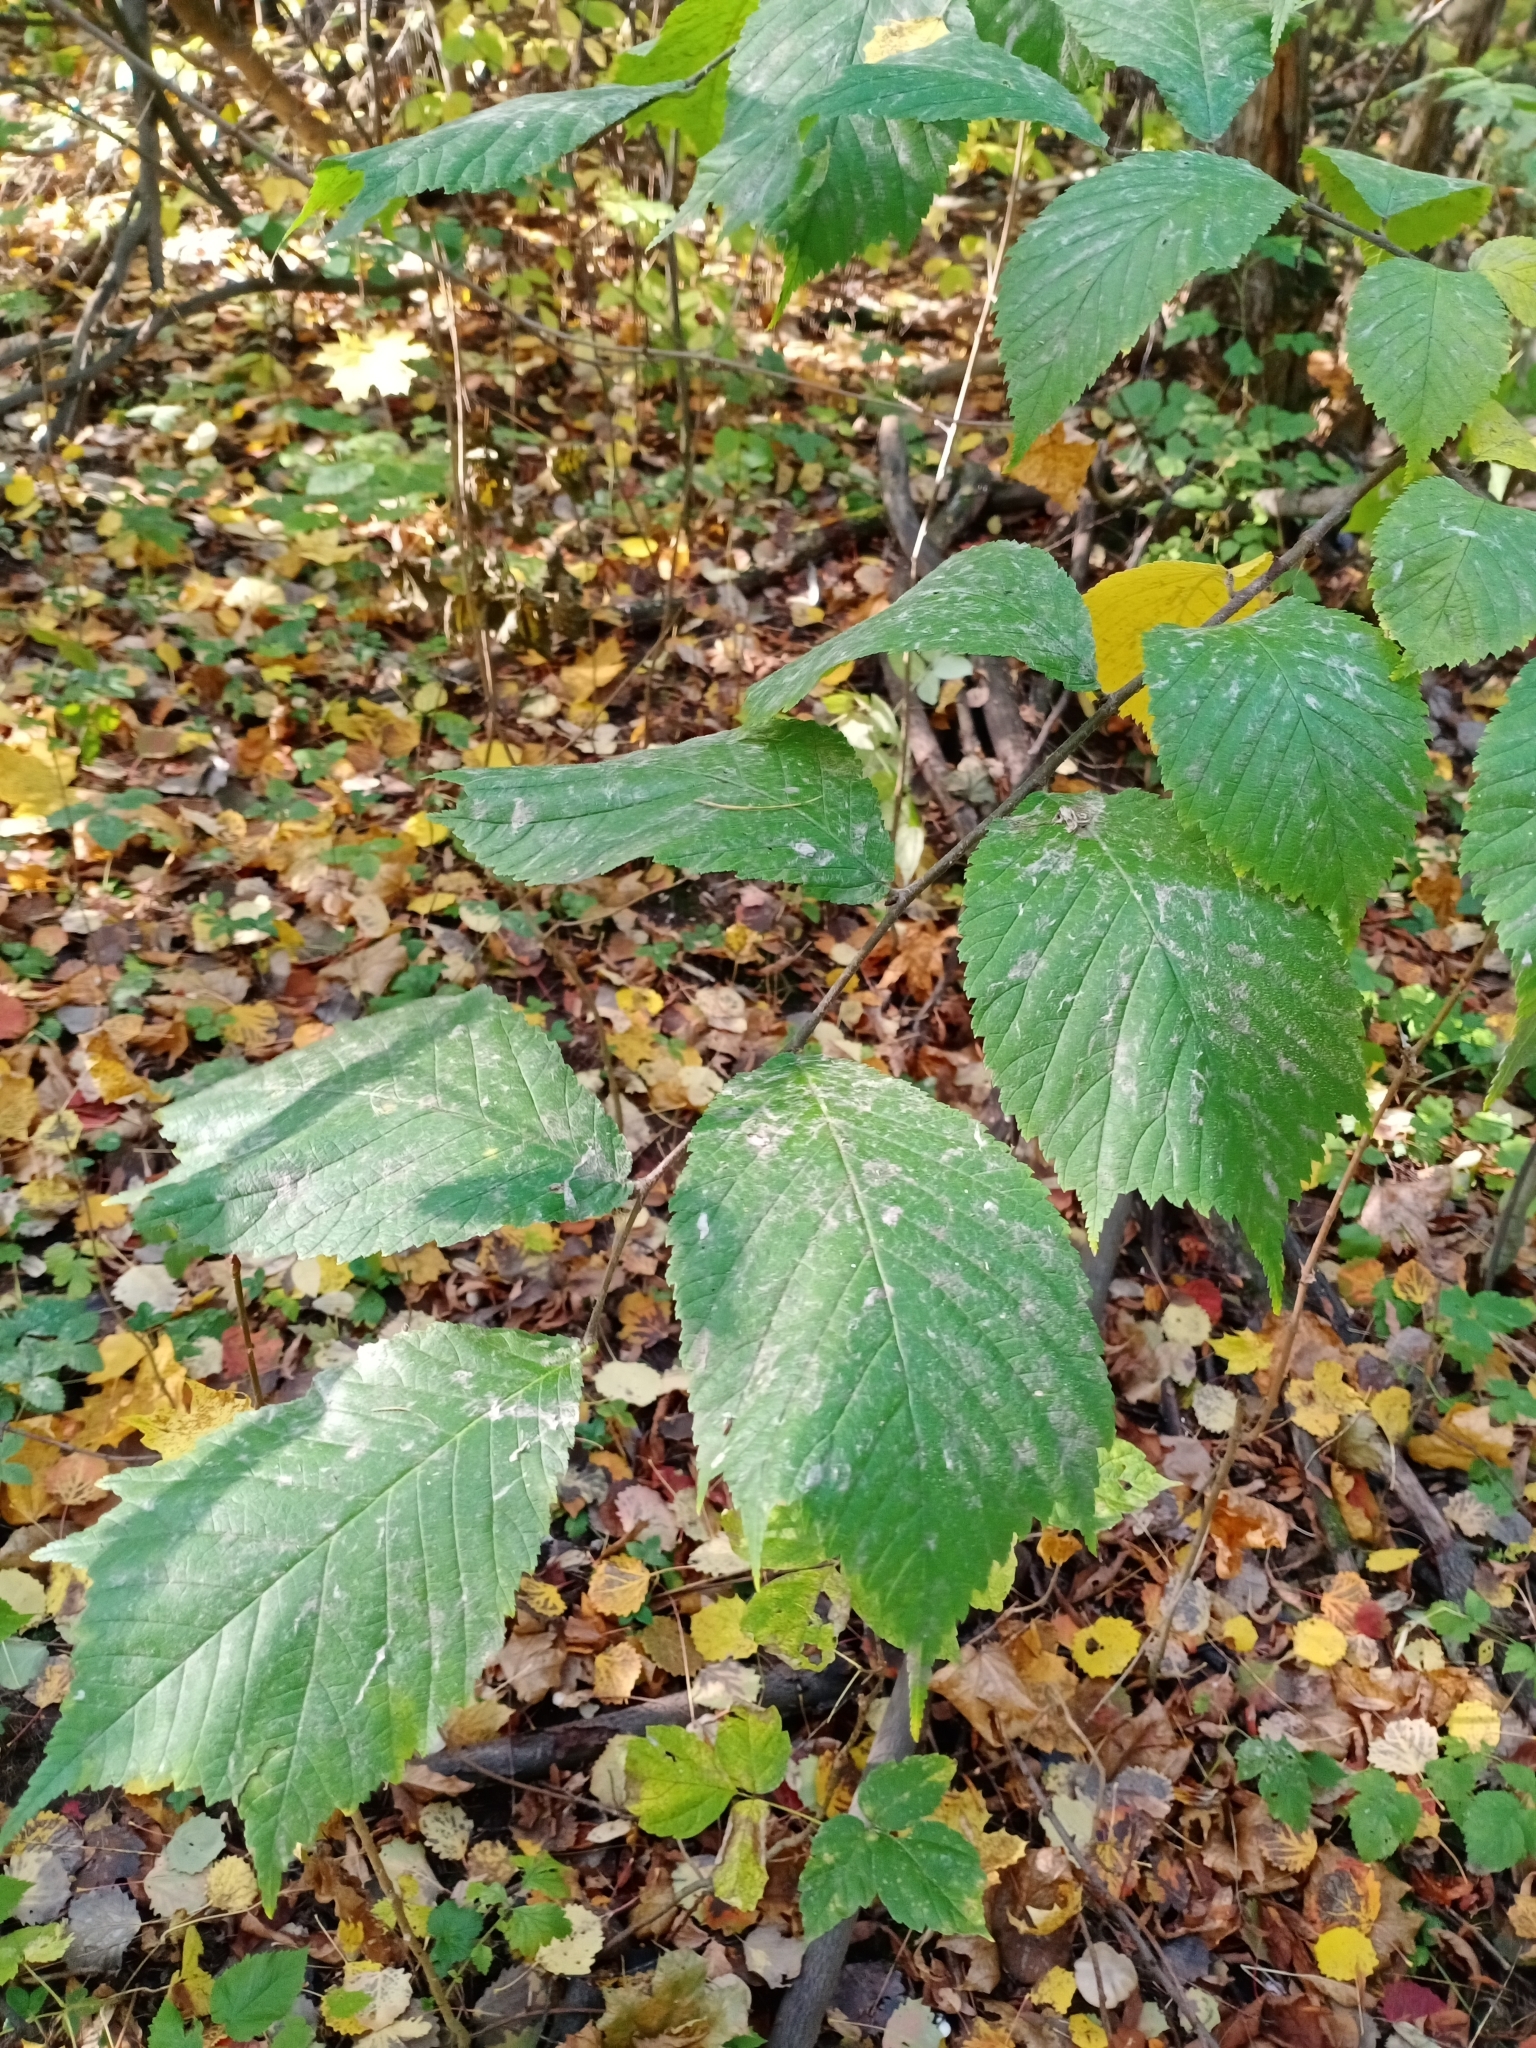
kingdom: Plantae
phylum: Tracheophyta
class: Magnoliopsida
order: Rosales
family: Ulmaceae
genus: Ulmus
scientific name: Ulmus glabra
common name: Wych elm
